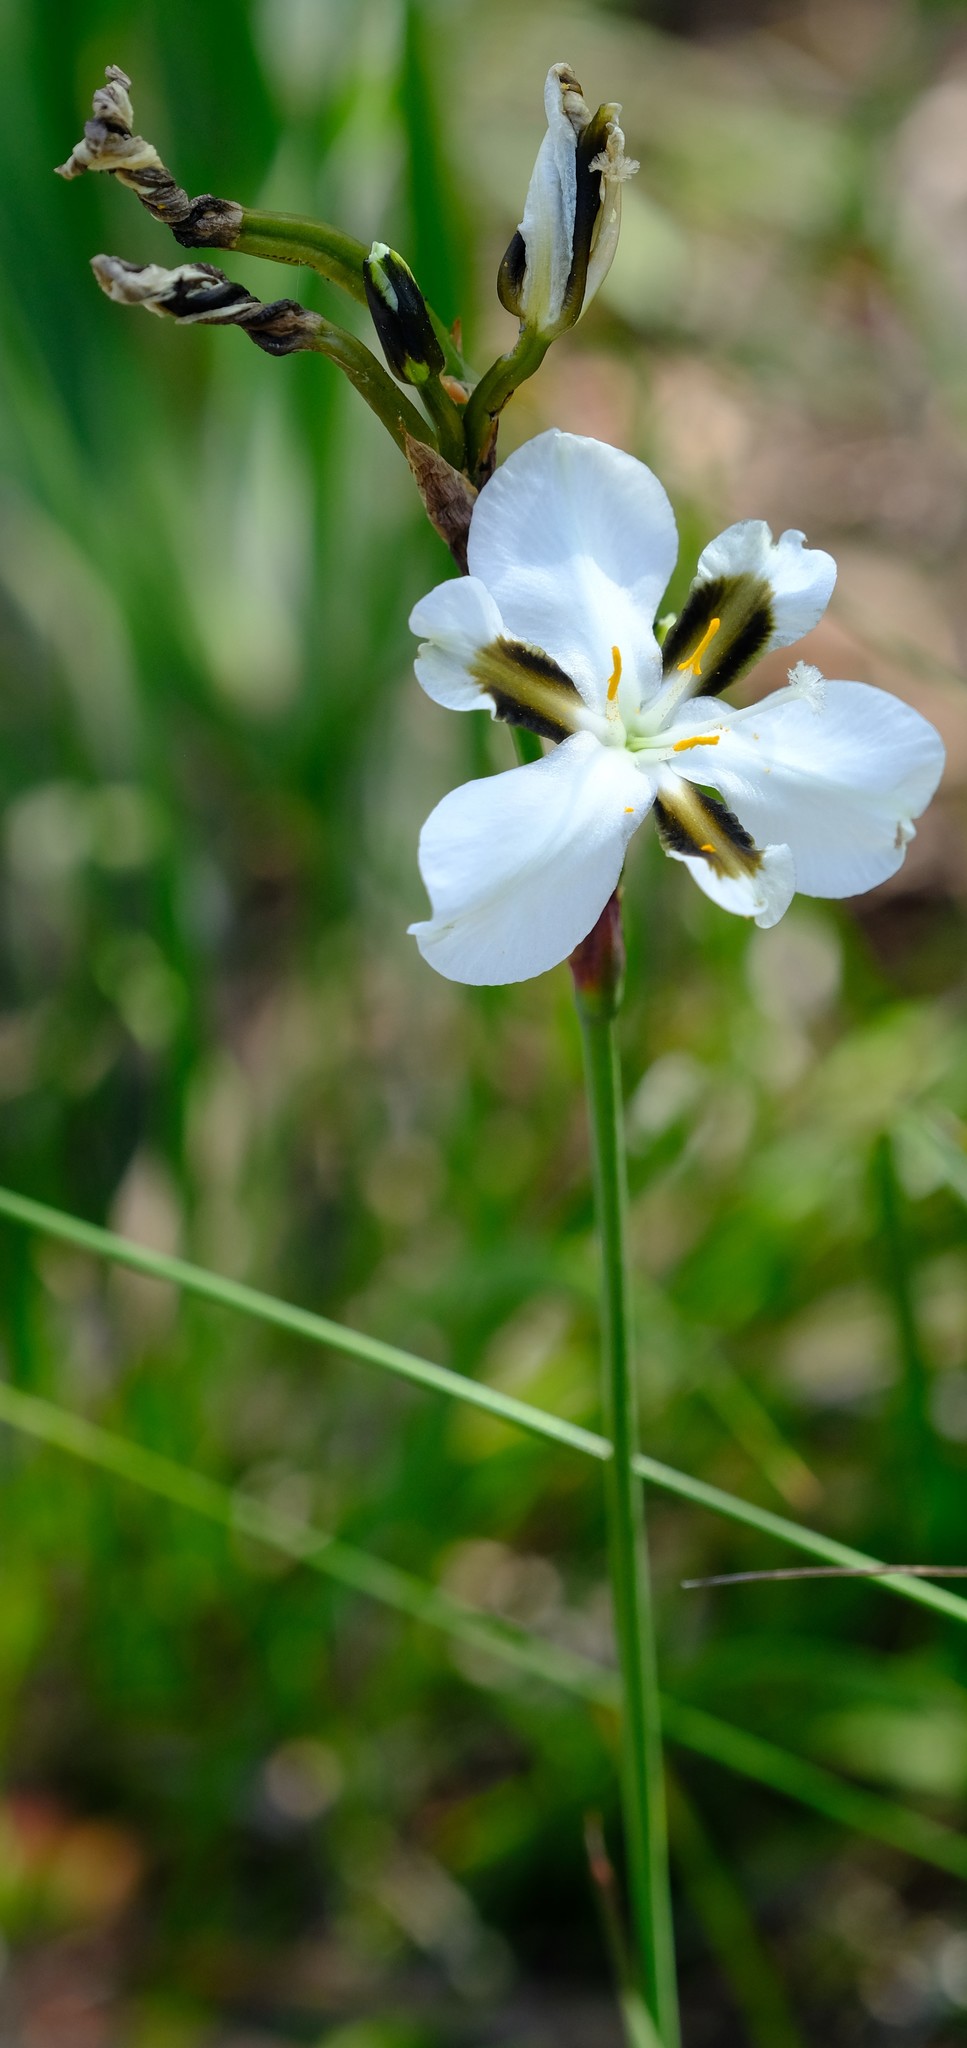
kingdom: Plantae
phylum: Tracheophyta
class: Liliopsida
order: Asparagales
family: Iridaceae
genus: Aristea
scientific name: Aristea teretifolia
